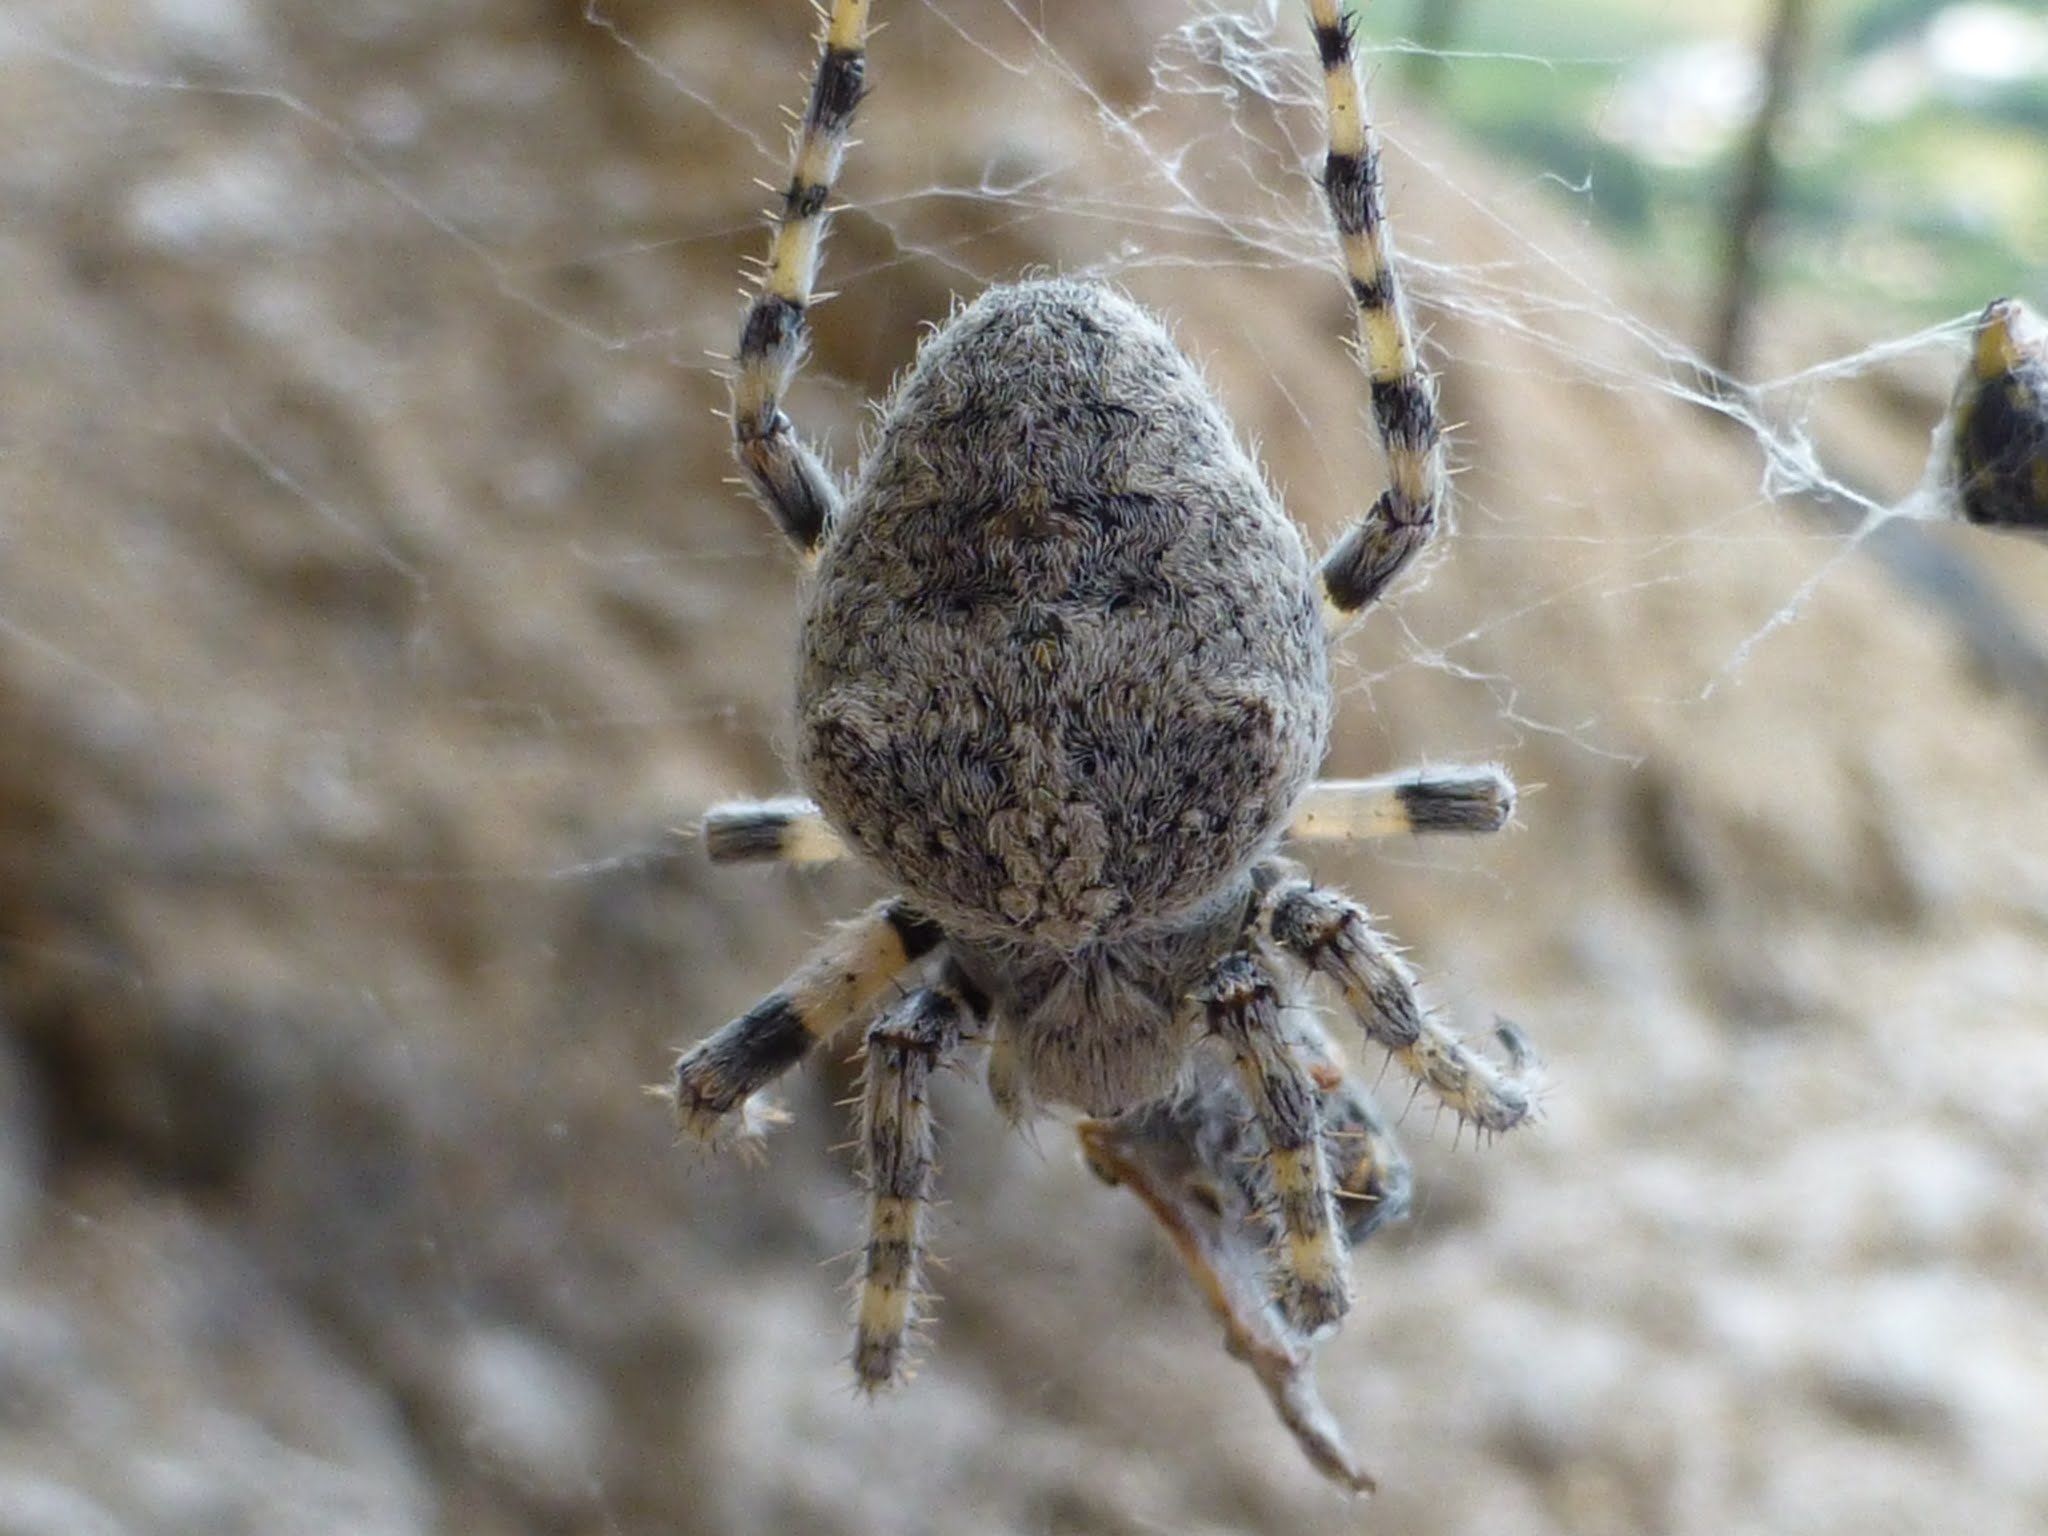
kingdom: Animalia
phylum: Arthropoda
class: Arachnida
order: Araneae
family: Araneidae
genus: Araneus
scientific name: Araneus circe
